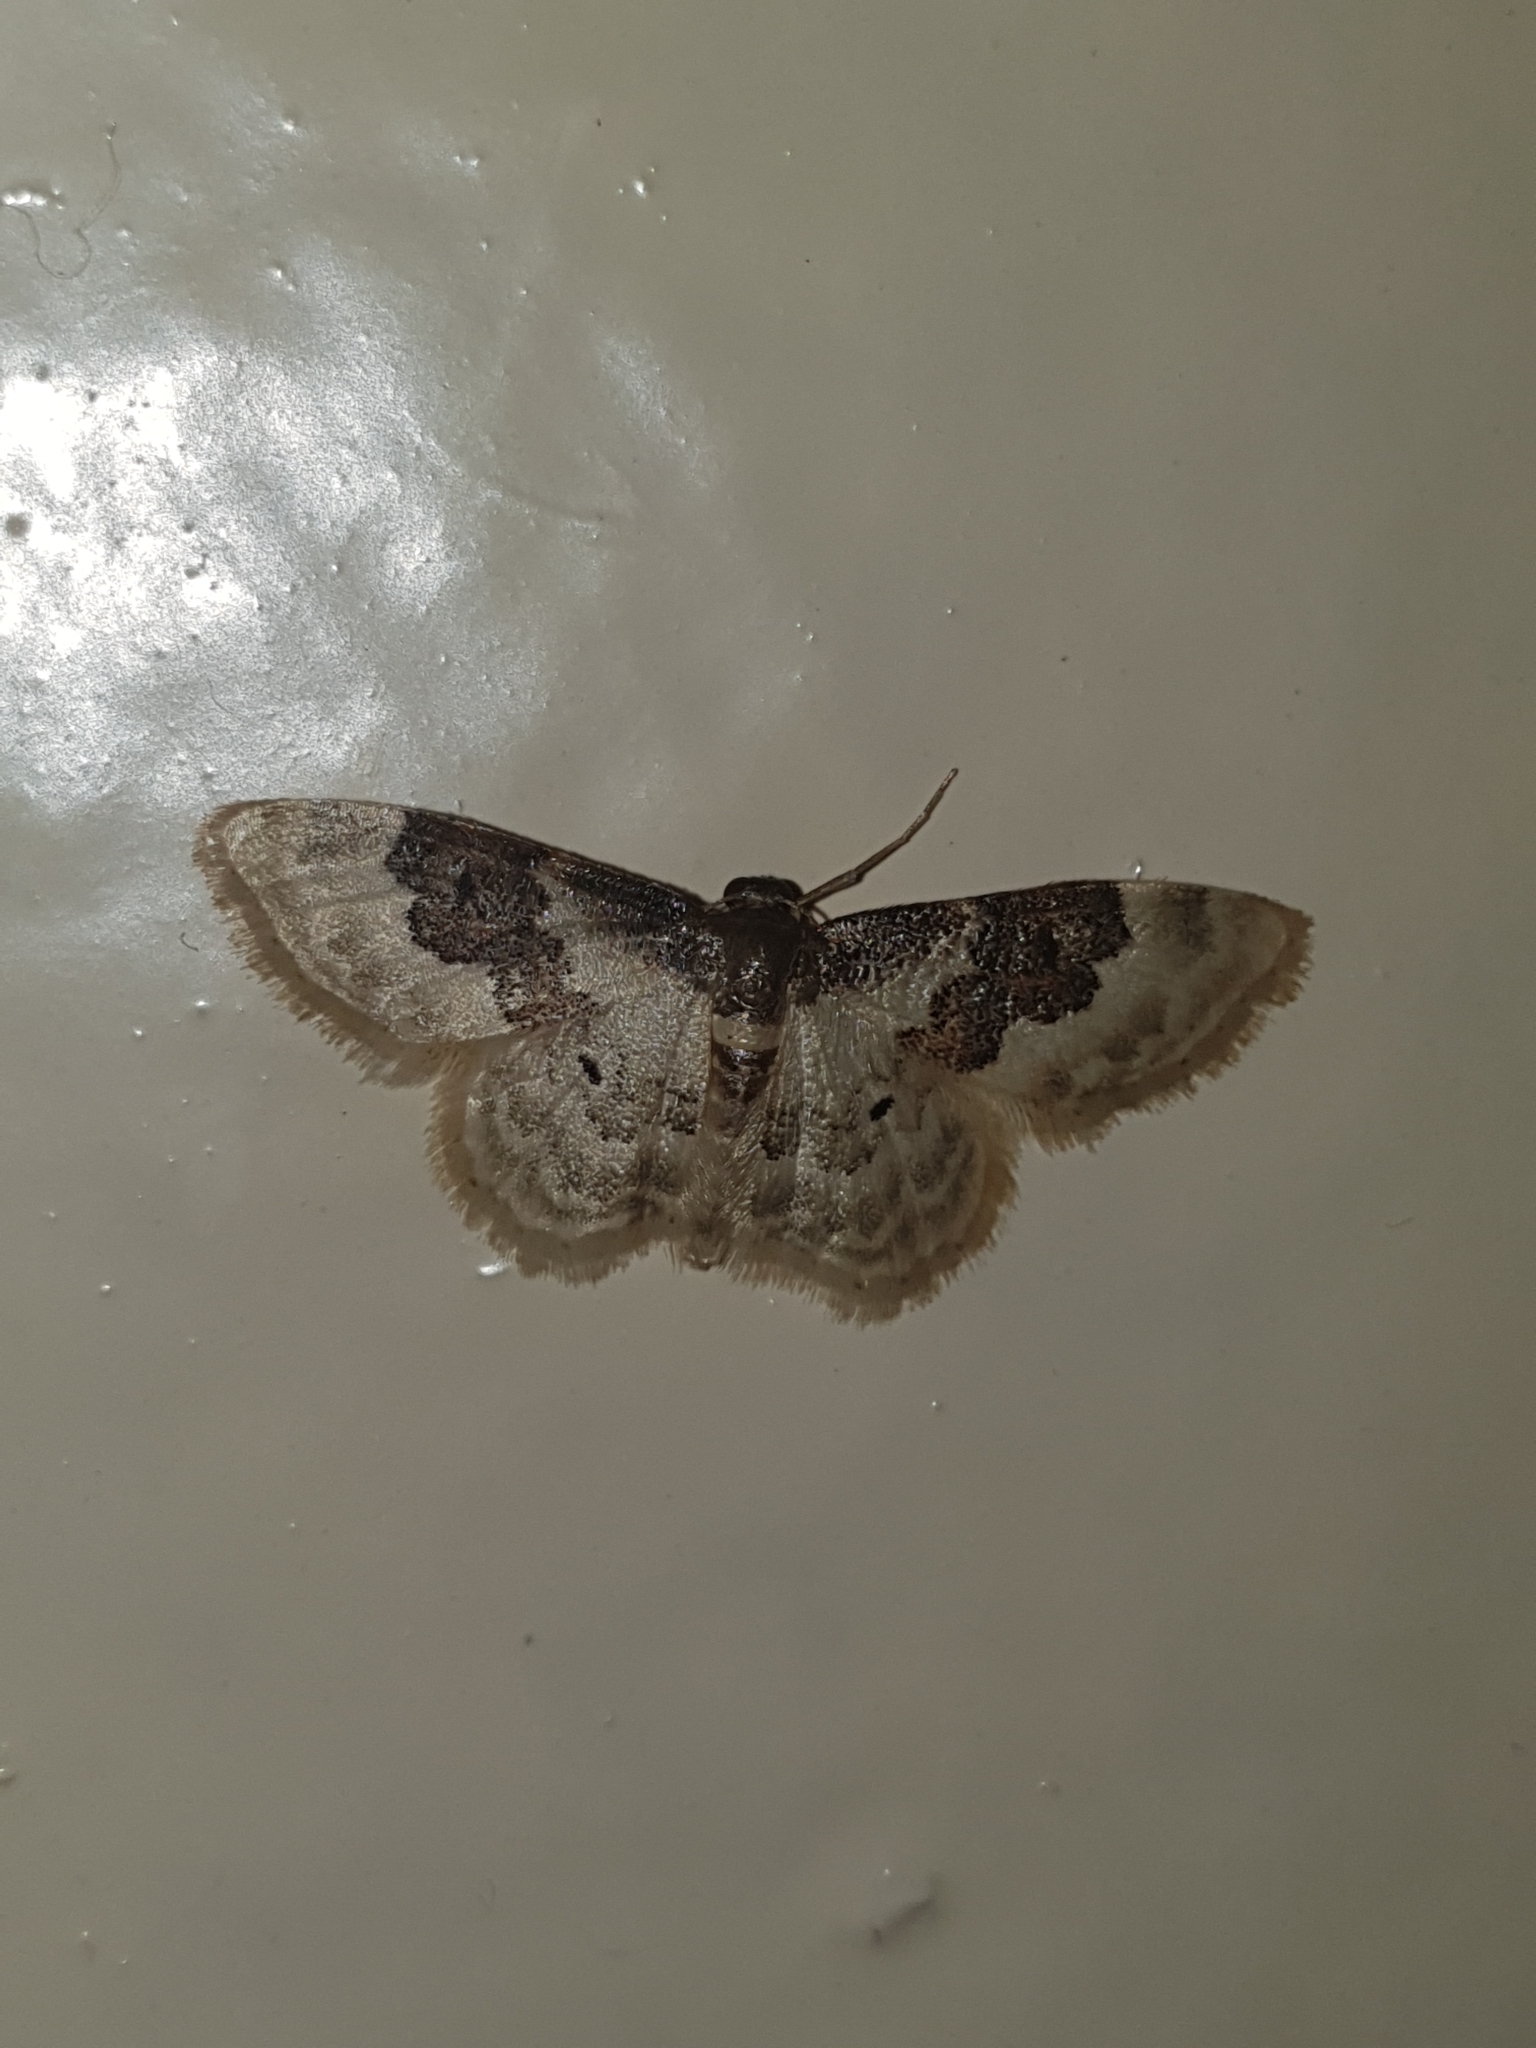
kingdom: Animalia
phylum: Arthropoda
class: Insecta
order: Lepidoptera
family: Geometridae
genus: Idaea
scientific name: Idaea rusticata
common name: Least carpet
